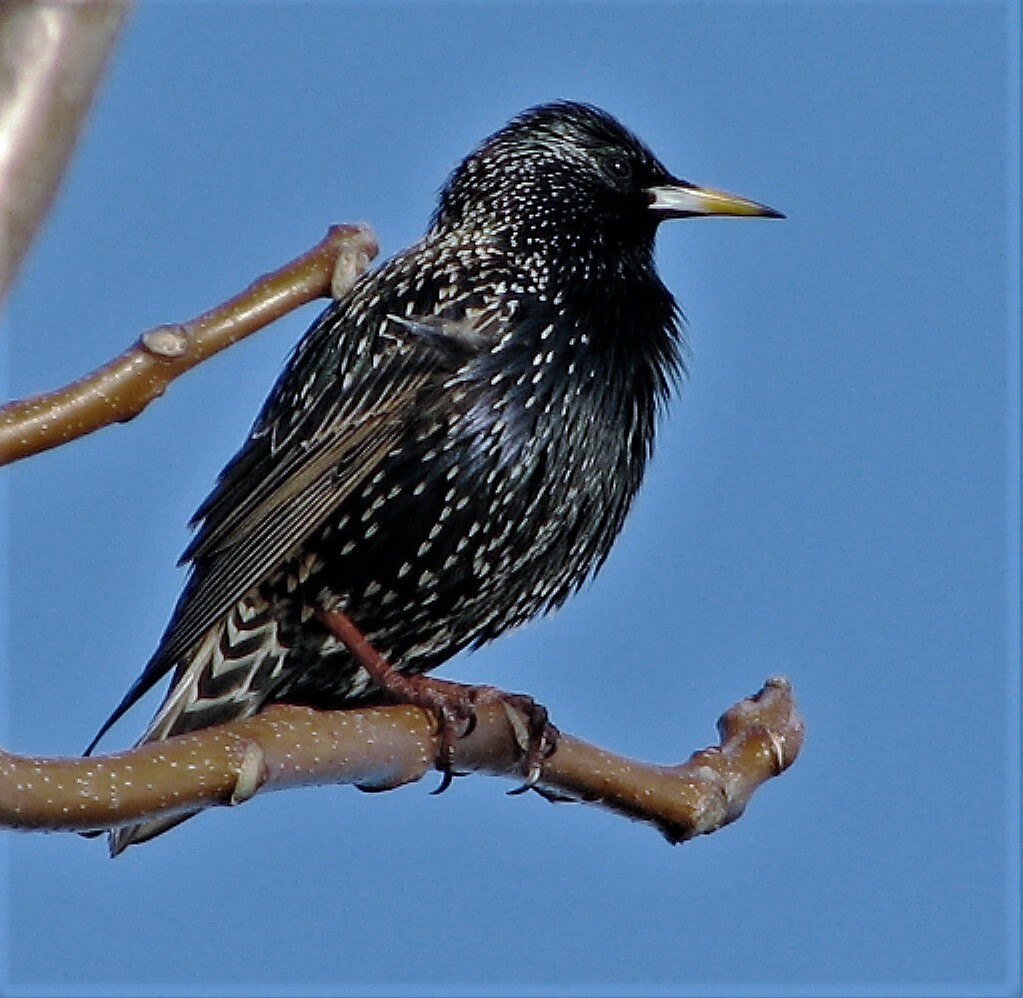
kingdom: Animalia
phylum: Chordata
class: Aves
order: Passeriformes
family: Sturnidae
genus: Sturnus
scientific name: Sturnus vulgaris
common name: Common starling
